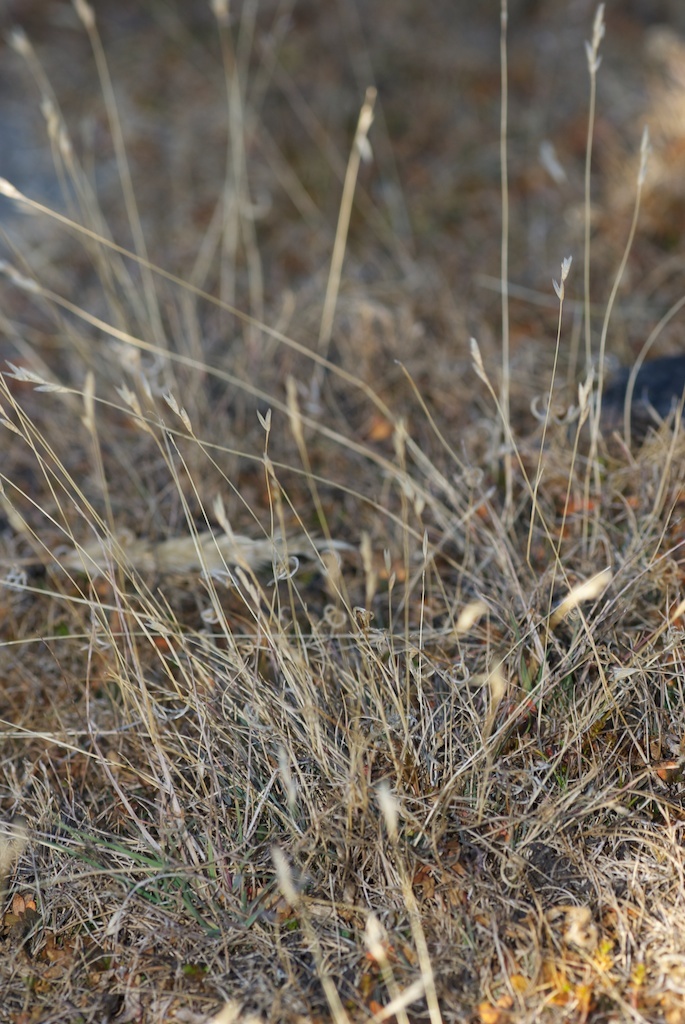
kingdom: Plantae
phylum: Tracheophyta
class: Liliopsida
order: Poales
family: Poaceae
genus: Rytidosperma
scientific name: Rytidosperma telmaticum
